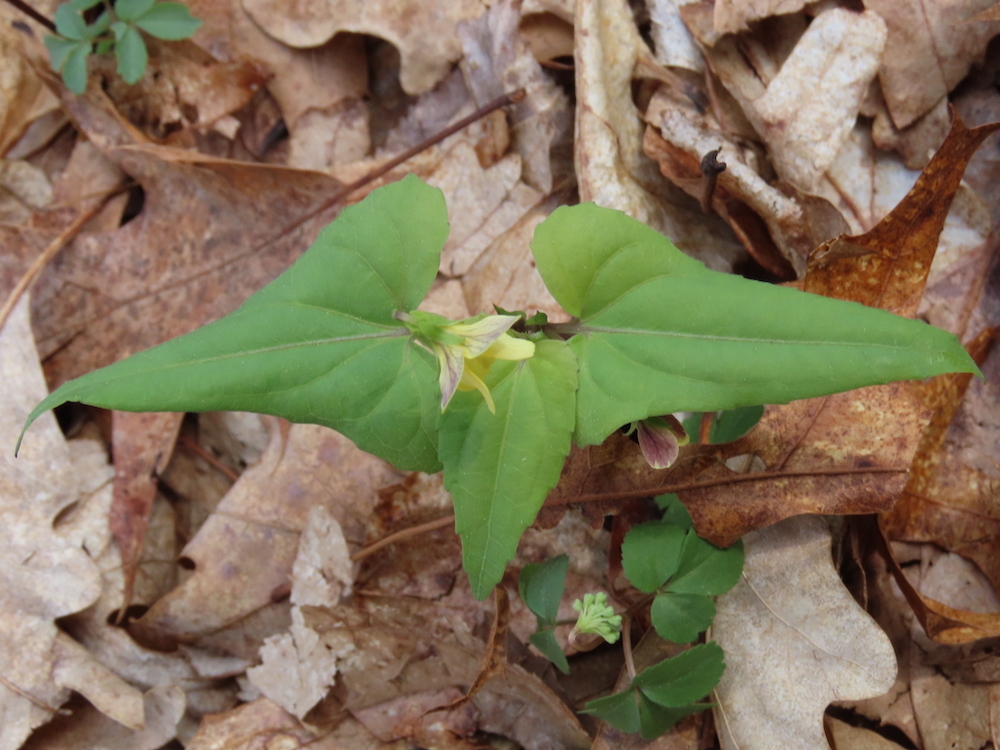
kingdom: Plantae
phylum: Tracheophyta
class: Magnoliopsida
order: Malpighiales
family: Violaceae
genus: Viola
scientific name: Viola hastata
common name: Spear-leaf violet
